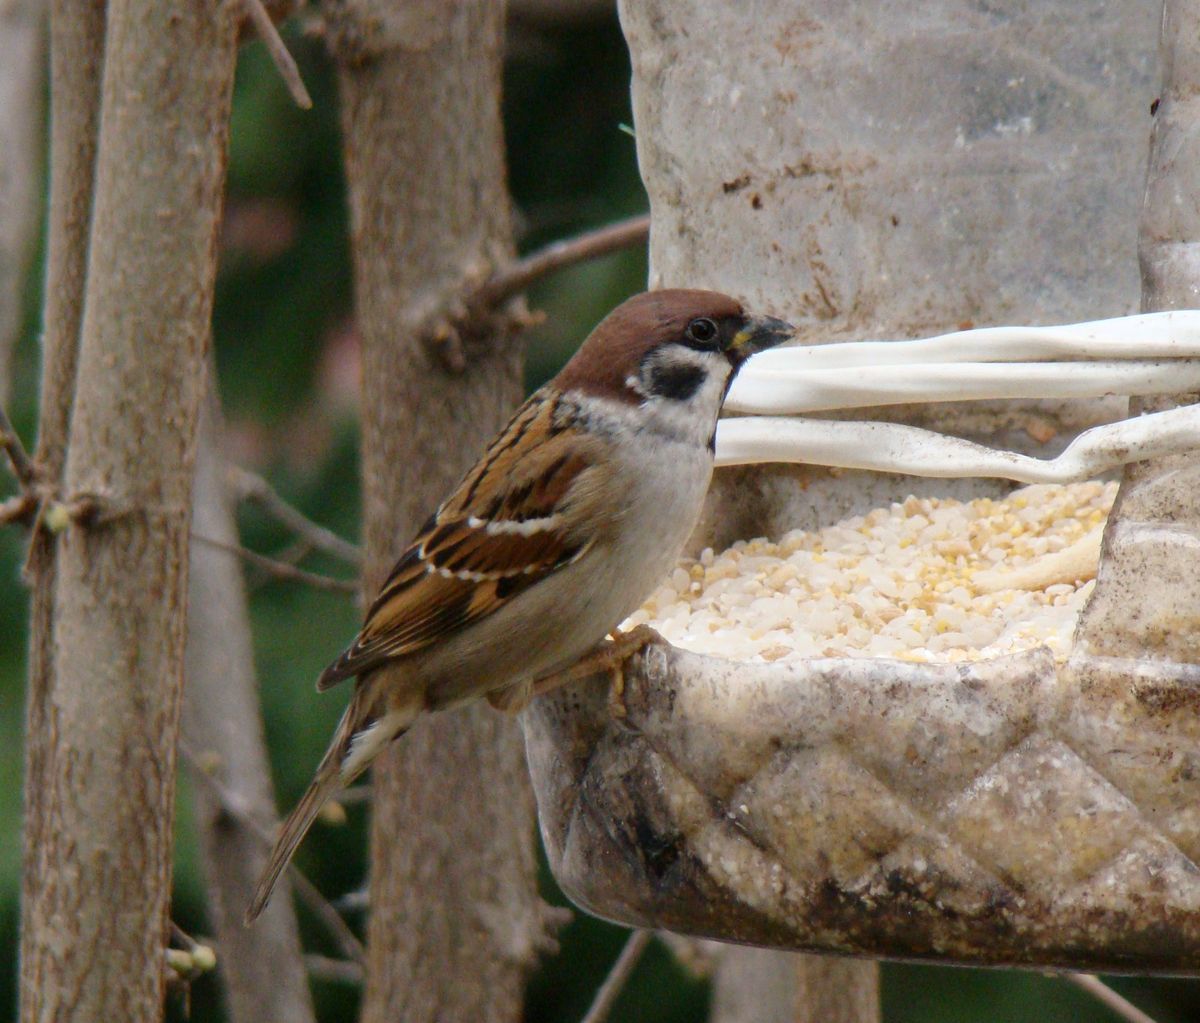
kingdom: Animalia
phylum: Chordata
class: Aves
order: Passeriformes
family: Passeridae
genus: Passer
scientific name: Passer montanus
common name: Eurasian tree sparrow
